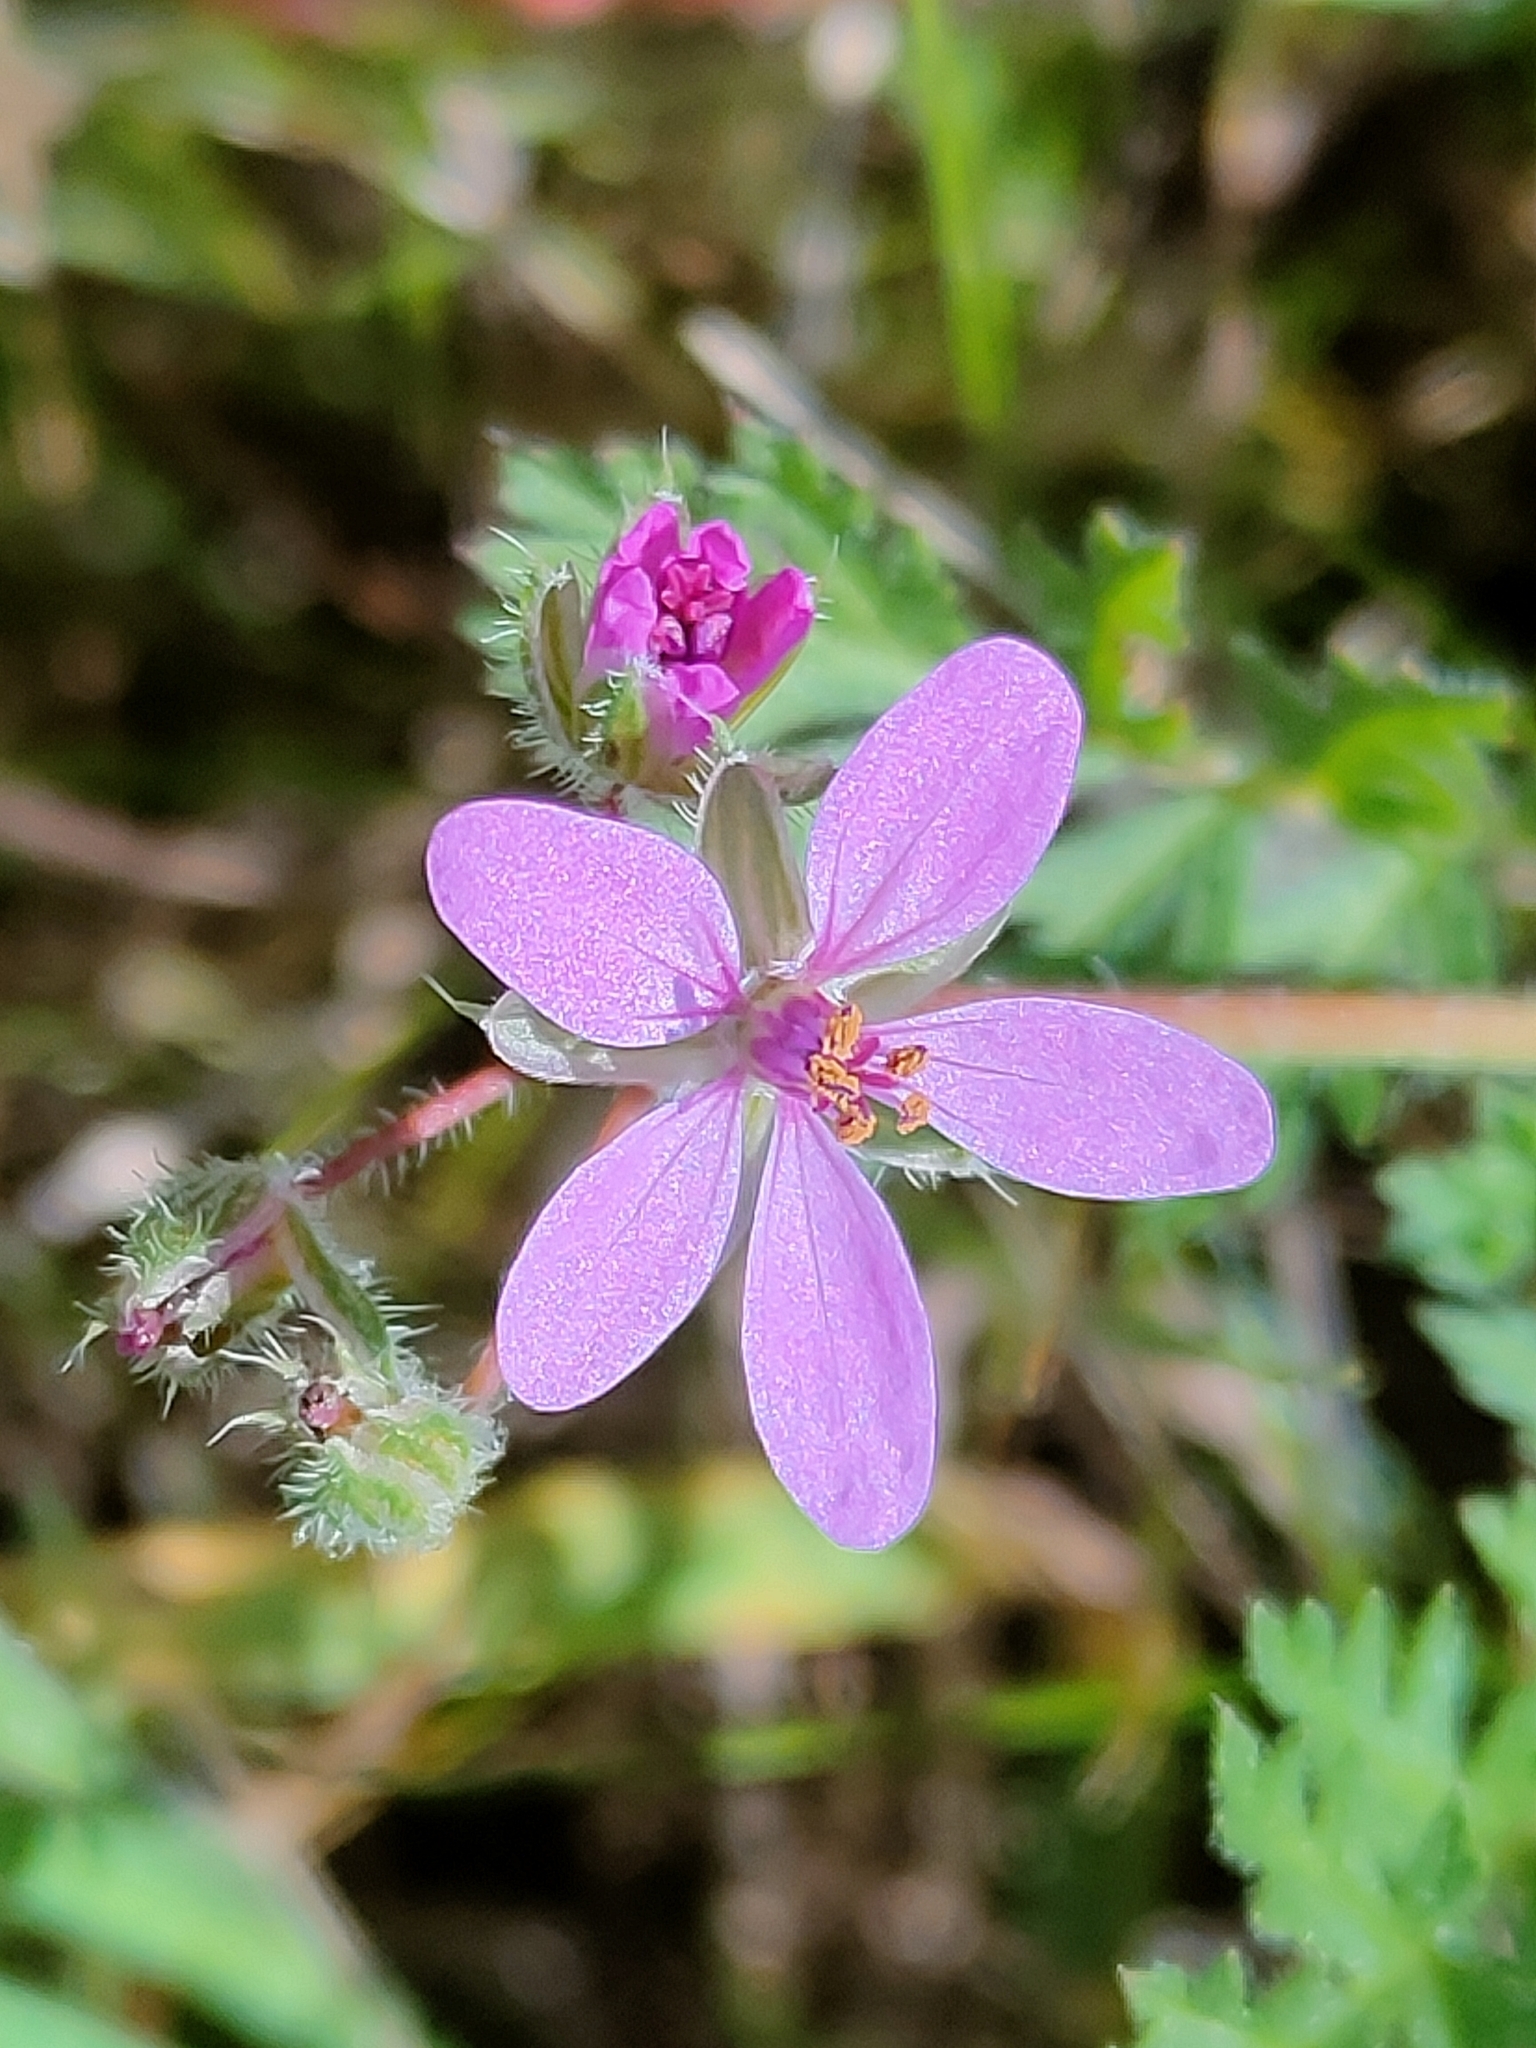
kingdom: Plantae
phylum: Tracheophyta
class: Magnoliopsida
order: Geraniales
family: Geraniaceae
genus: Erodium
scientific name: Erodium cicutarium
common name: Common stork's-bill
